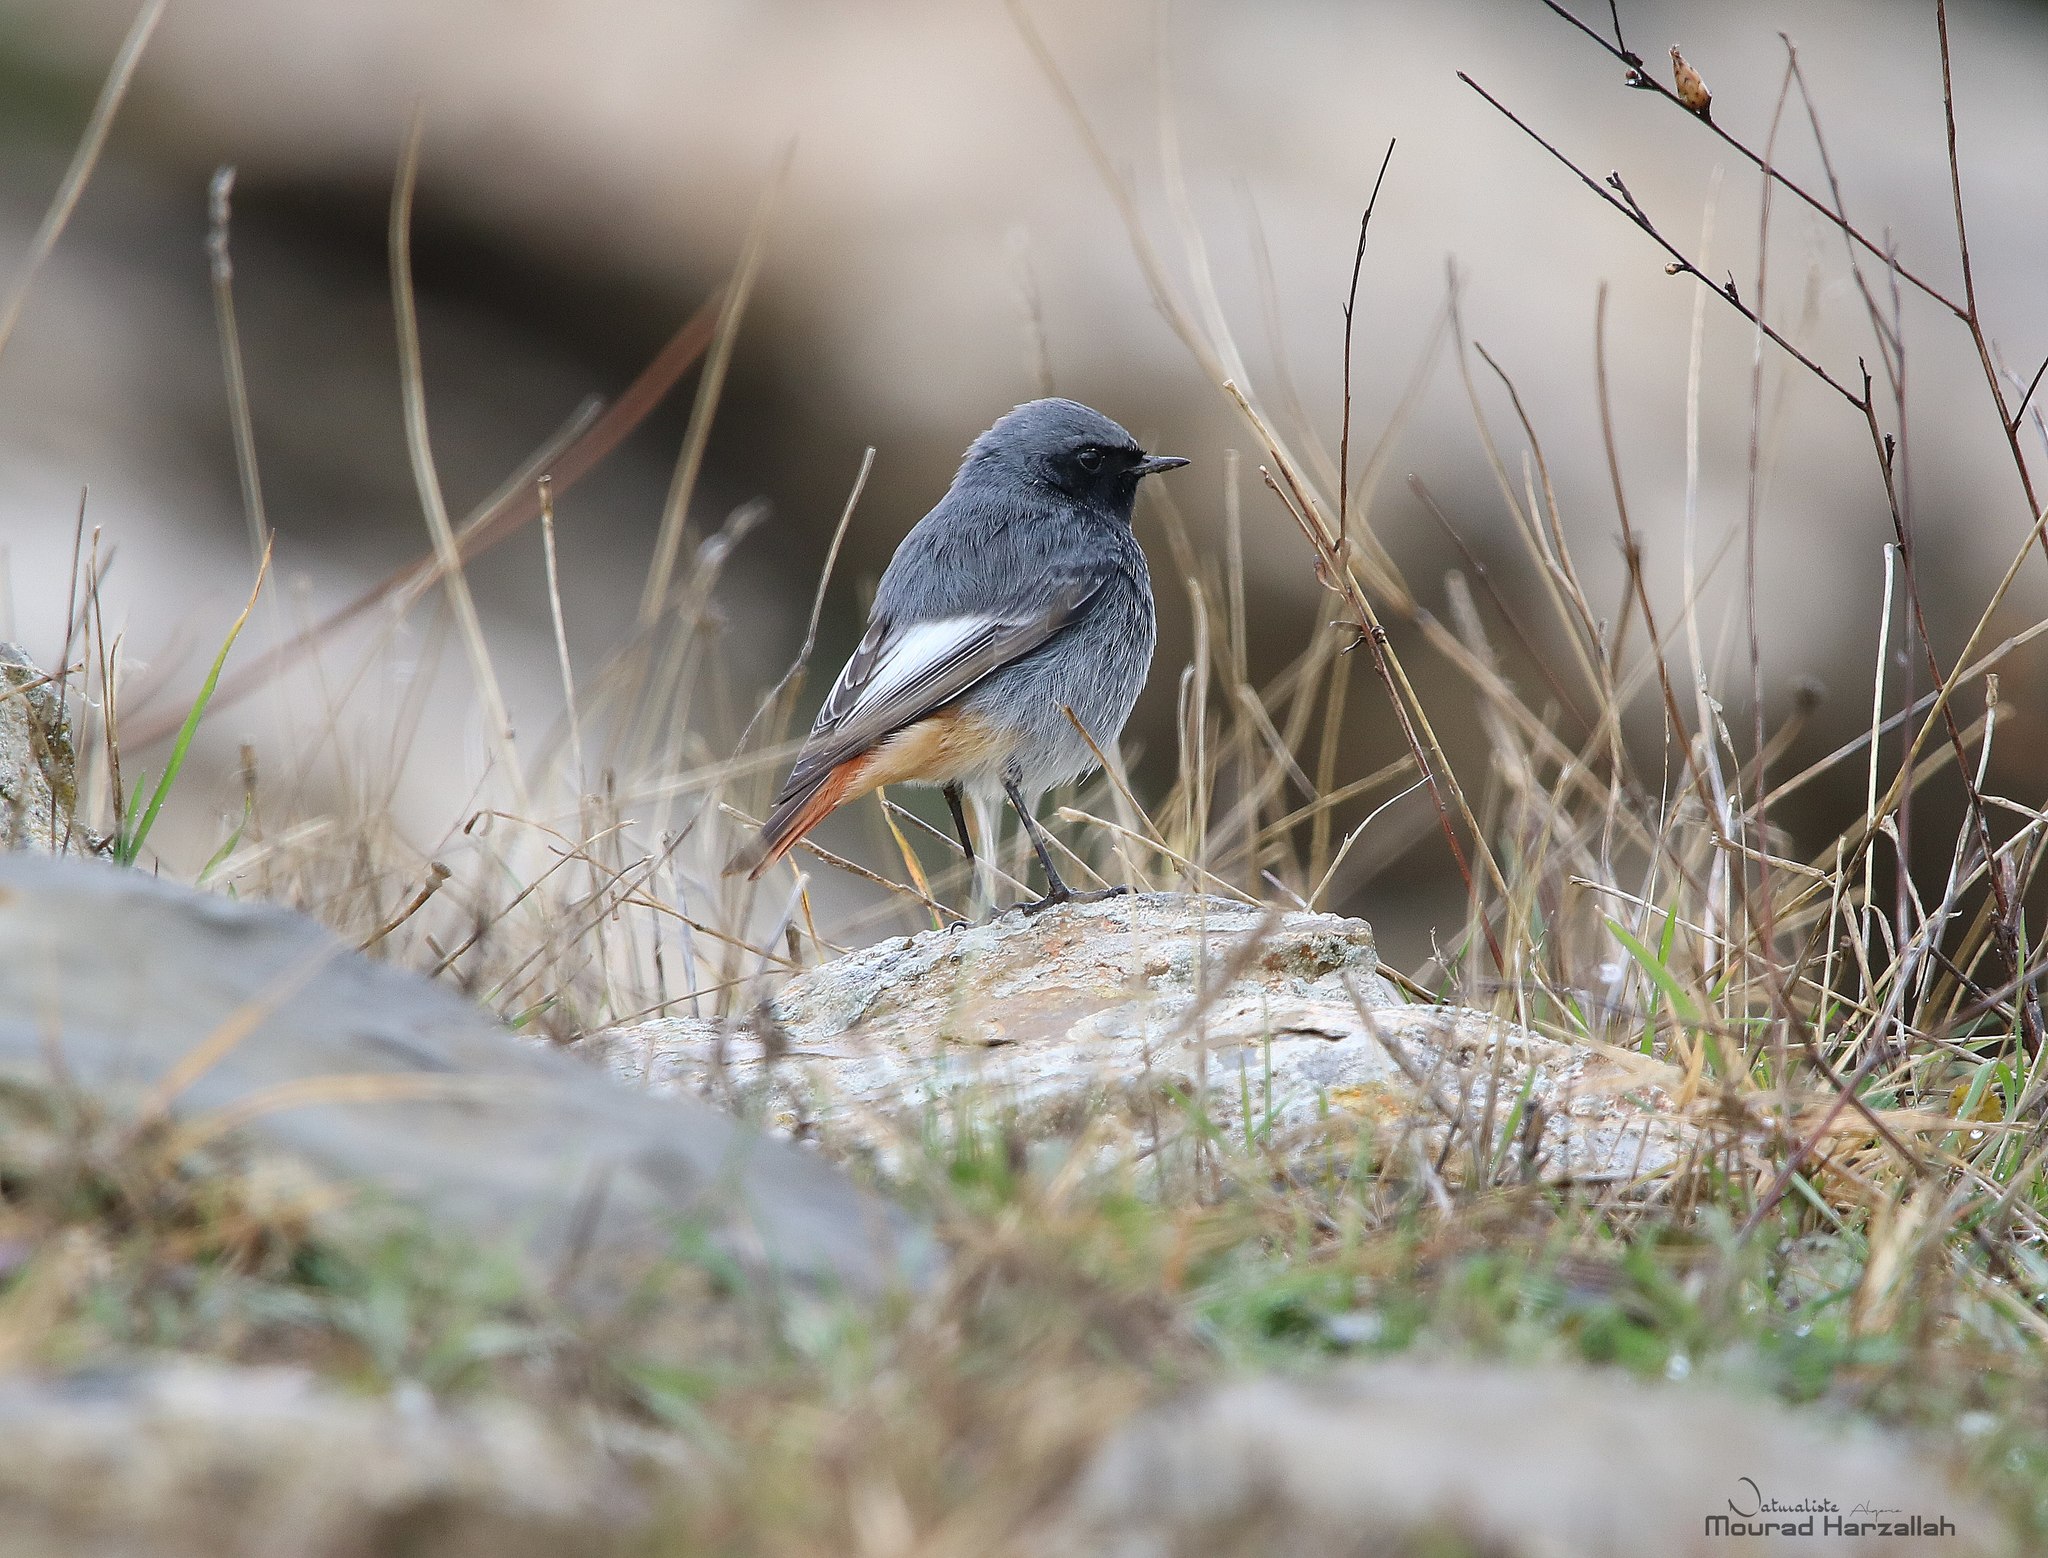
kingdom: Animalia
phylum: Chordata
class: Aves
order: Passeriformes
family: Muscicapidae
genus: Phoenicurus
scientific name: Phoenicurus ochruros
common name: Black redstart
